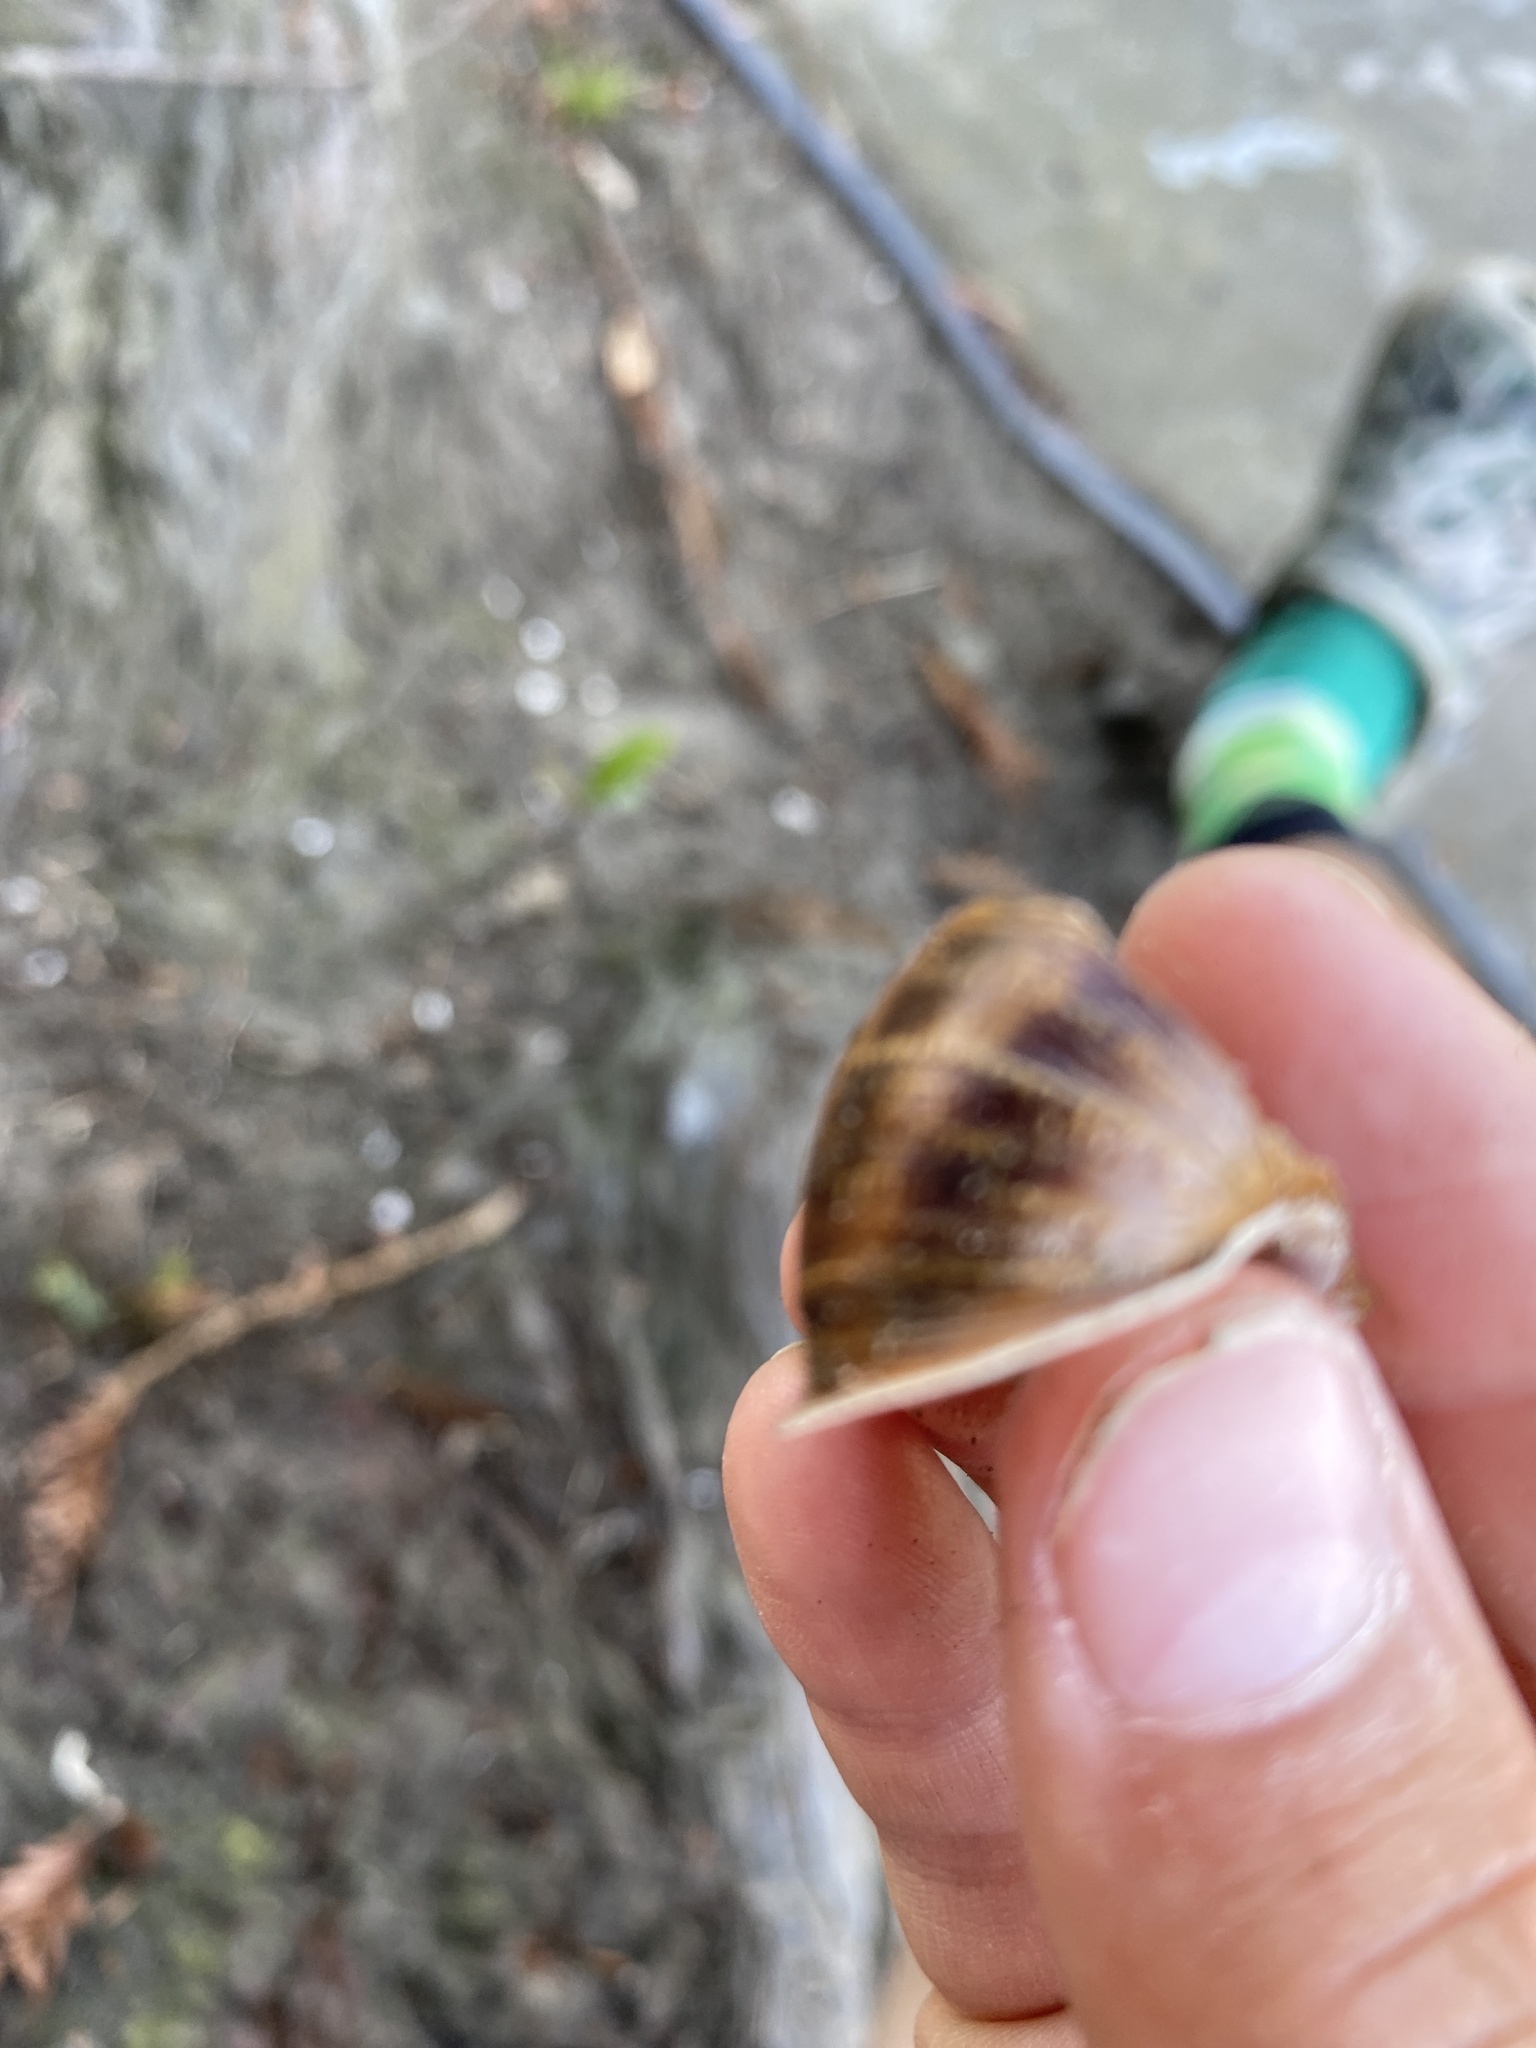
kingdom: Animalia
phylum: Mollusca
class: Gastropoda
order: Stylommatophora
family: Helicidae
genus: Cornu
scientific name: Cornu aspersum
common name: Brown garden snail
